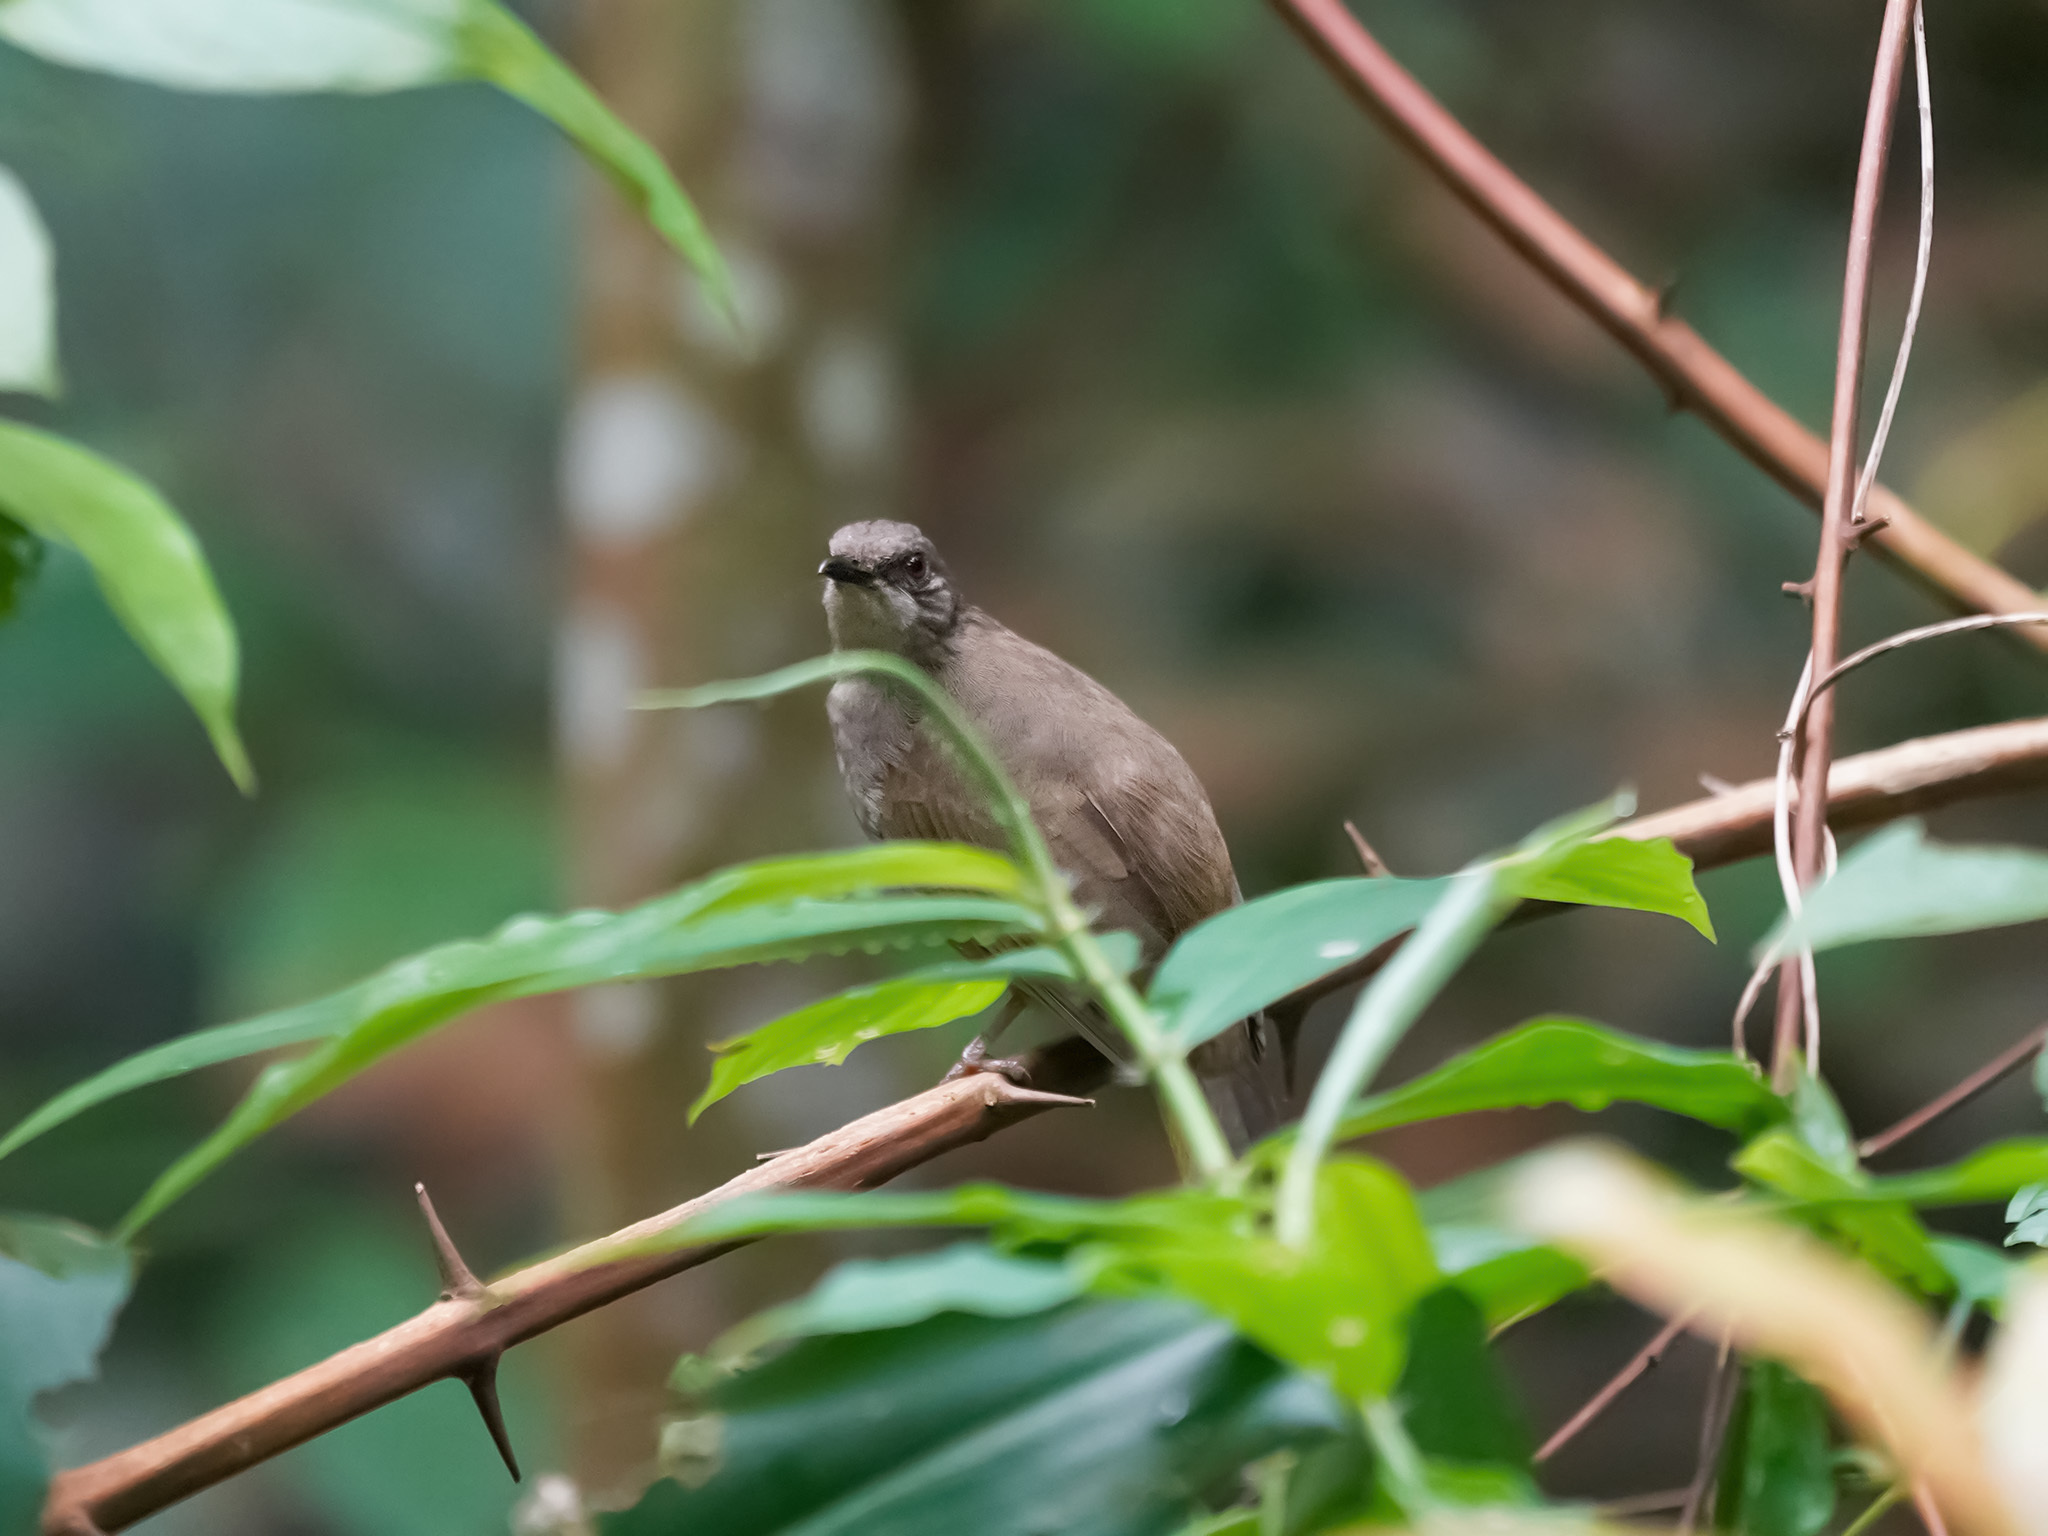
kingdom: Animalia
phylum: Chordata
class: Aves
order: Passeriformes
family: Pycnonotidae
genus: Pycnonotus
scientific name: Pycnonotus plumosus
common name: Olive-winged bulbul
